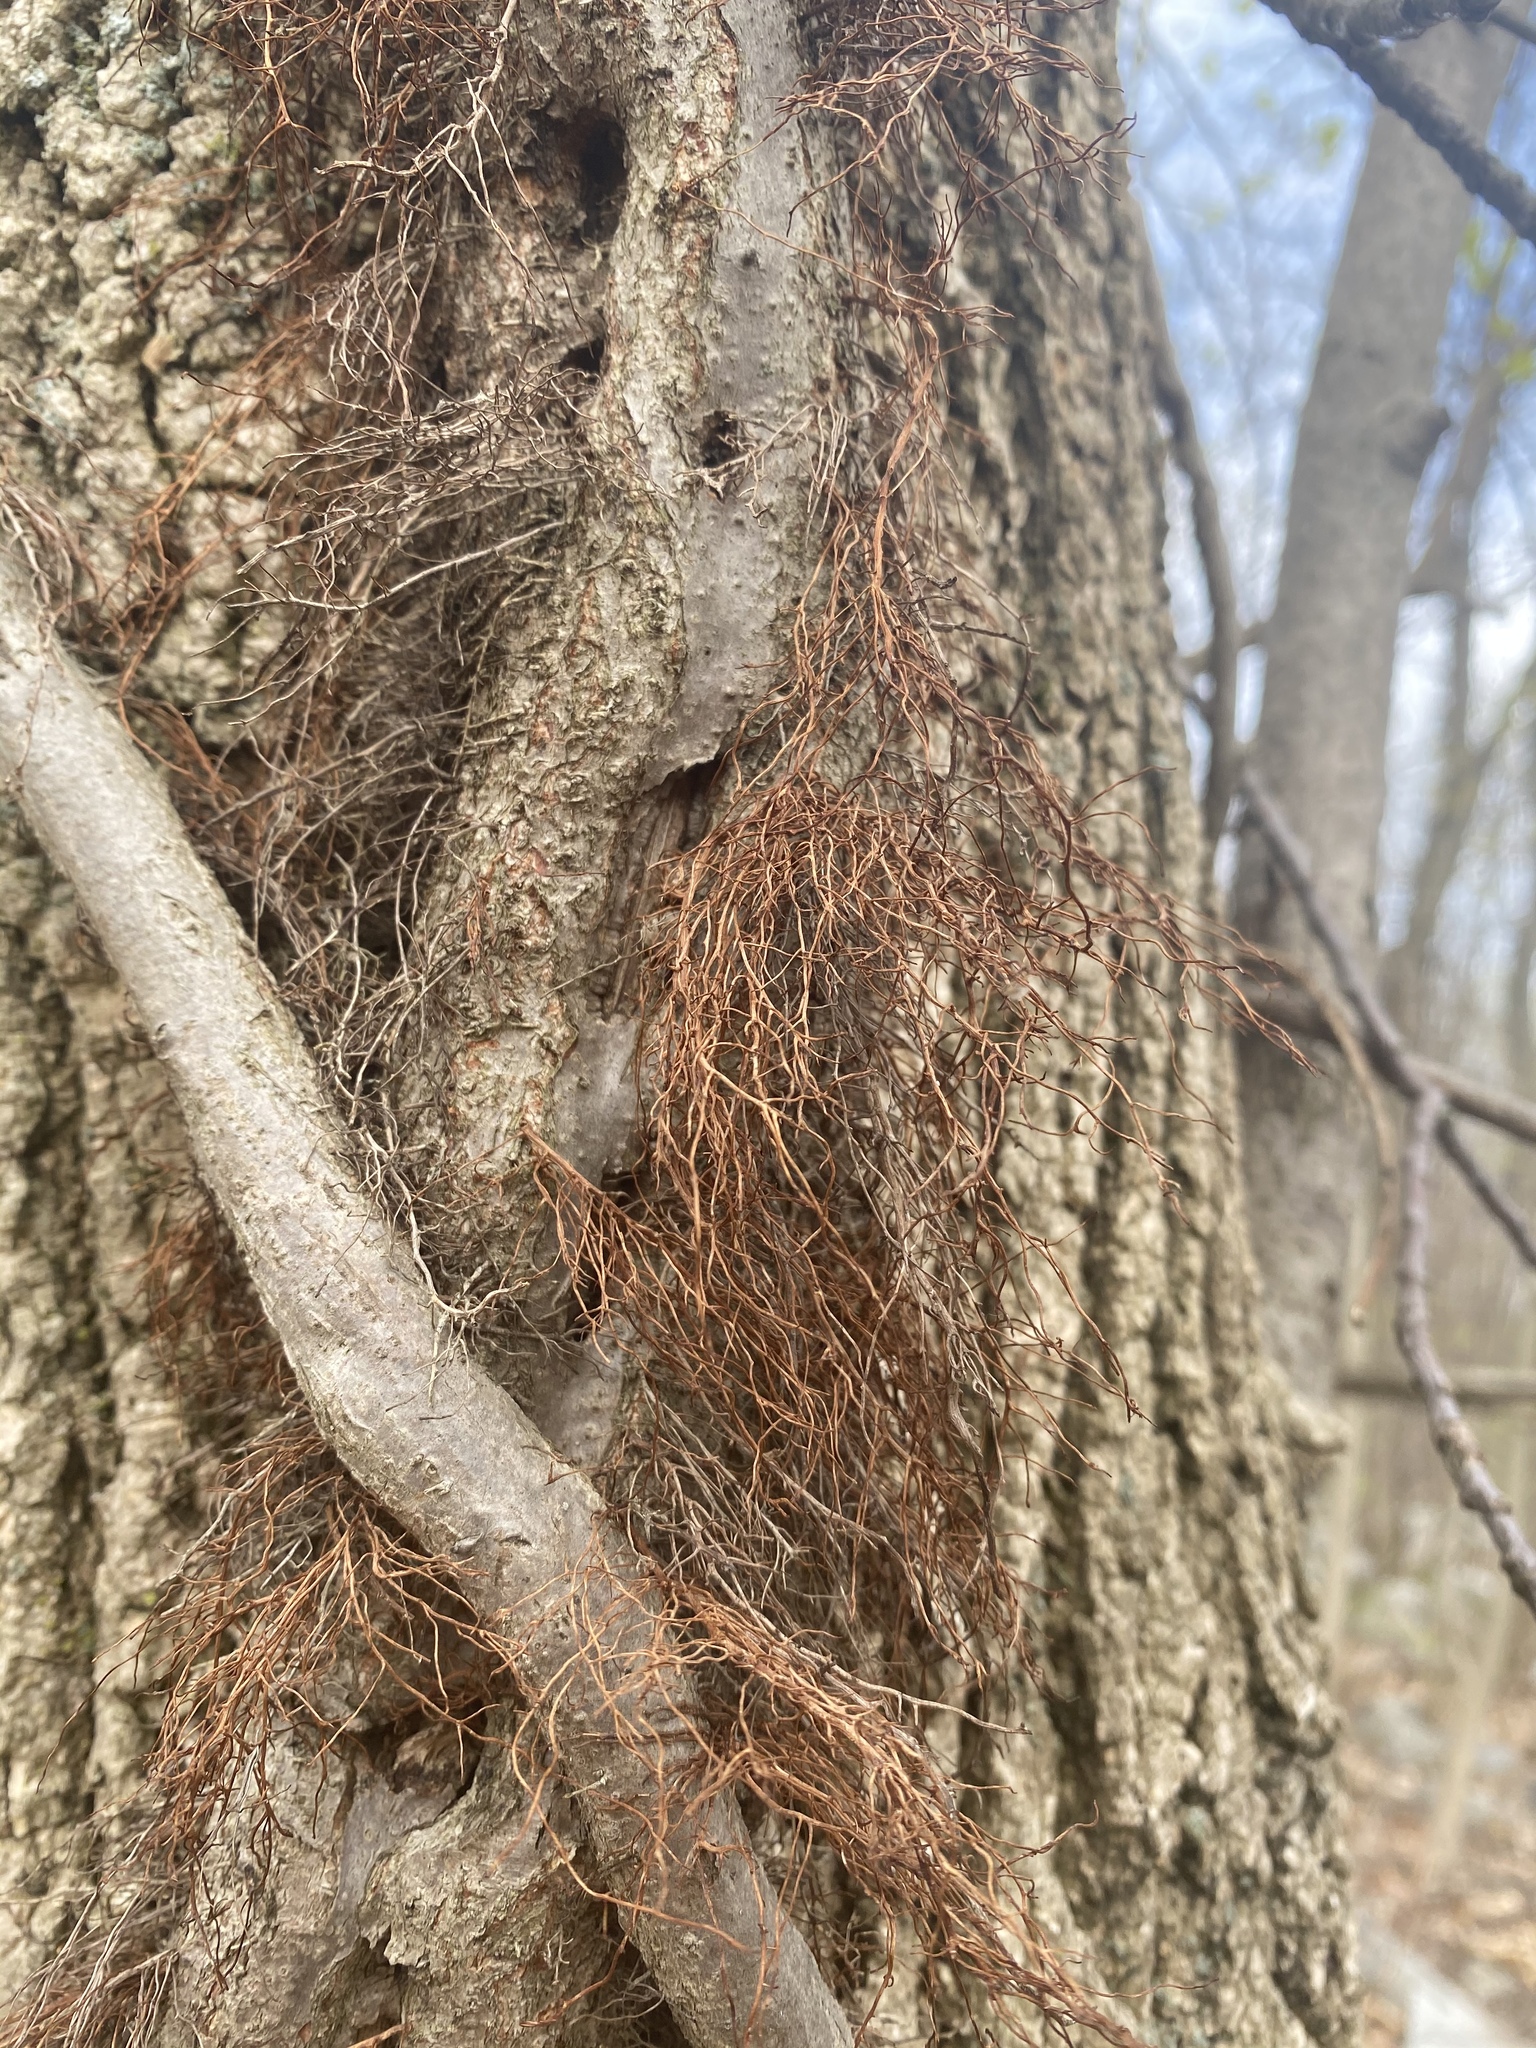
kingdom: Plantae
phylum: Tracheophyta
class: Magnoliopsida
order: Sapindales
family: Anacardiaceae
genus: Toxicodendron
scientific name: Toxicodendron radicans
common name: Poison ivy
